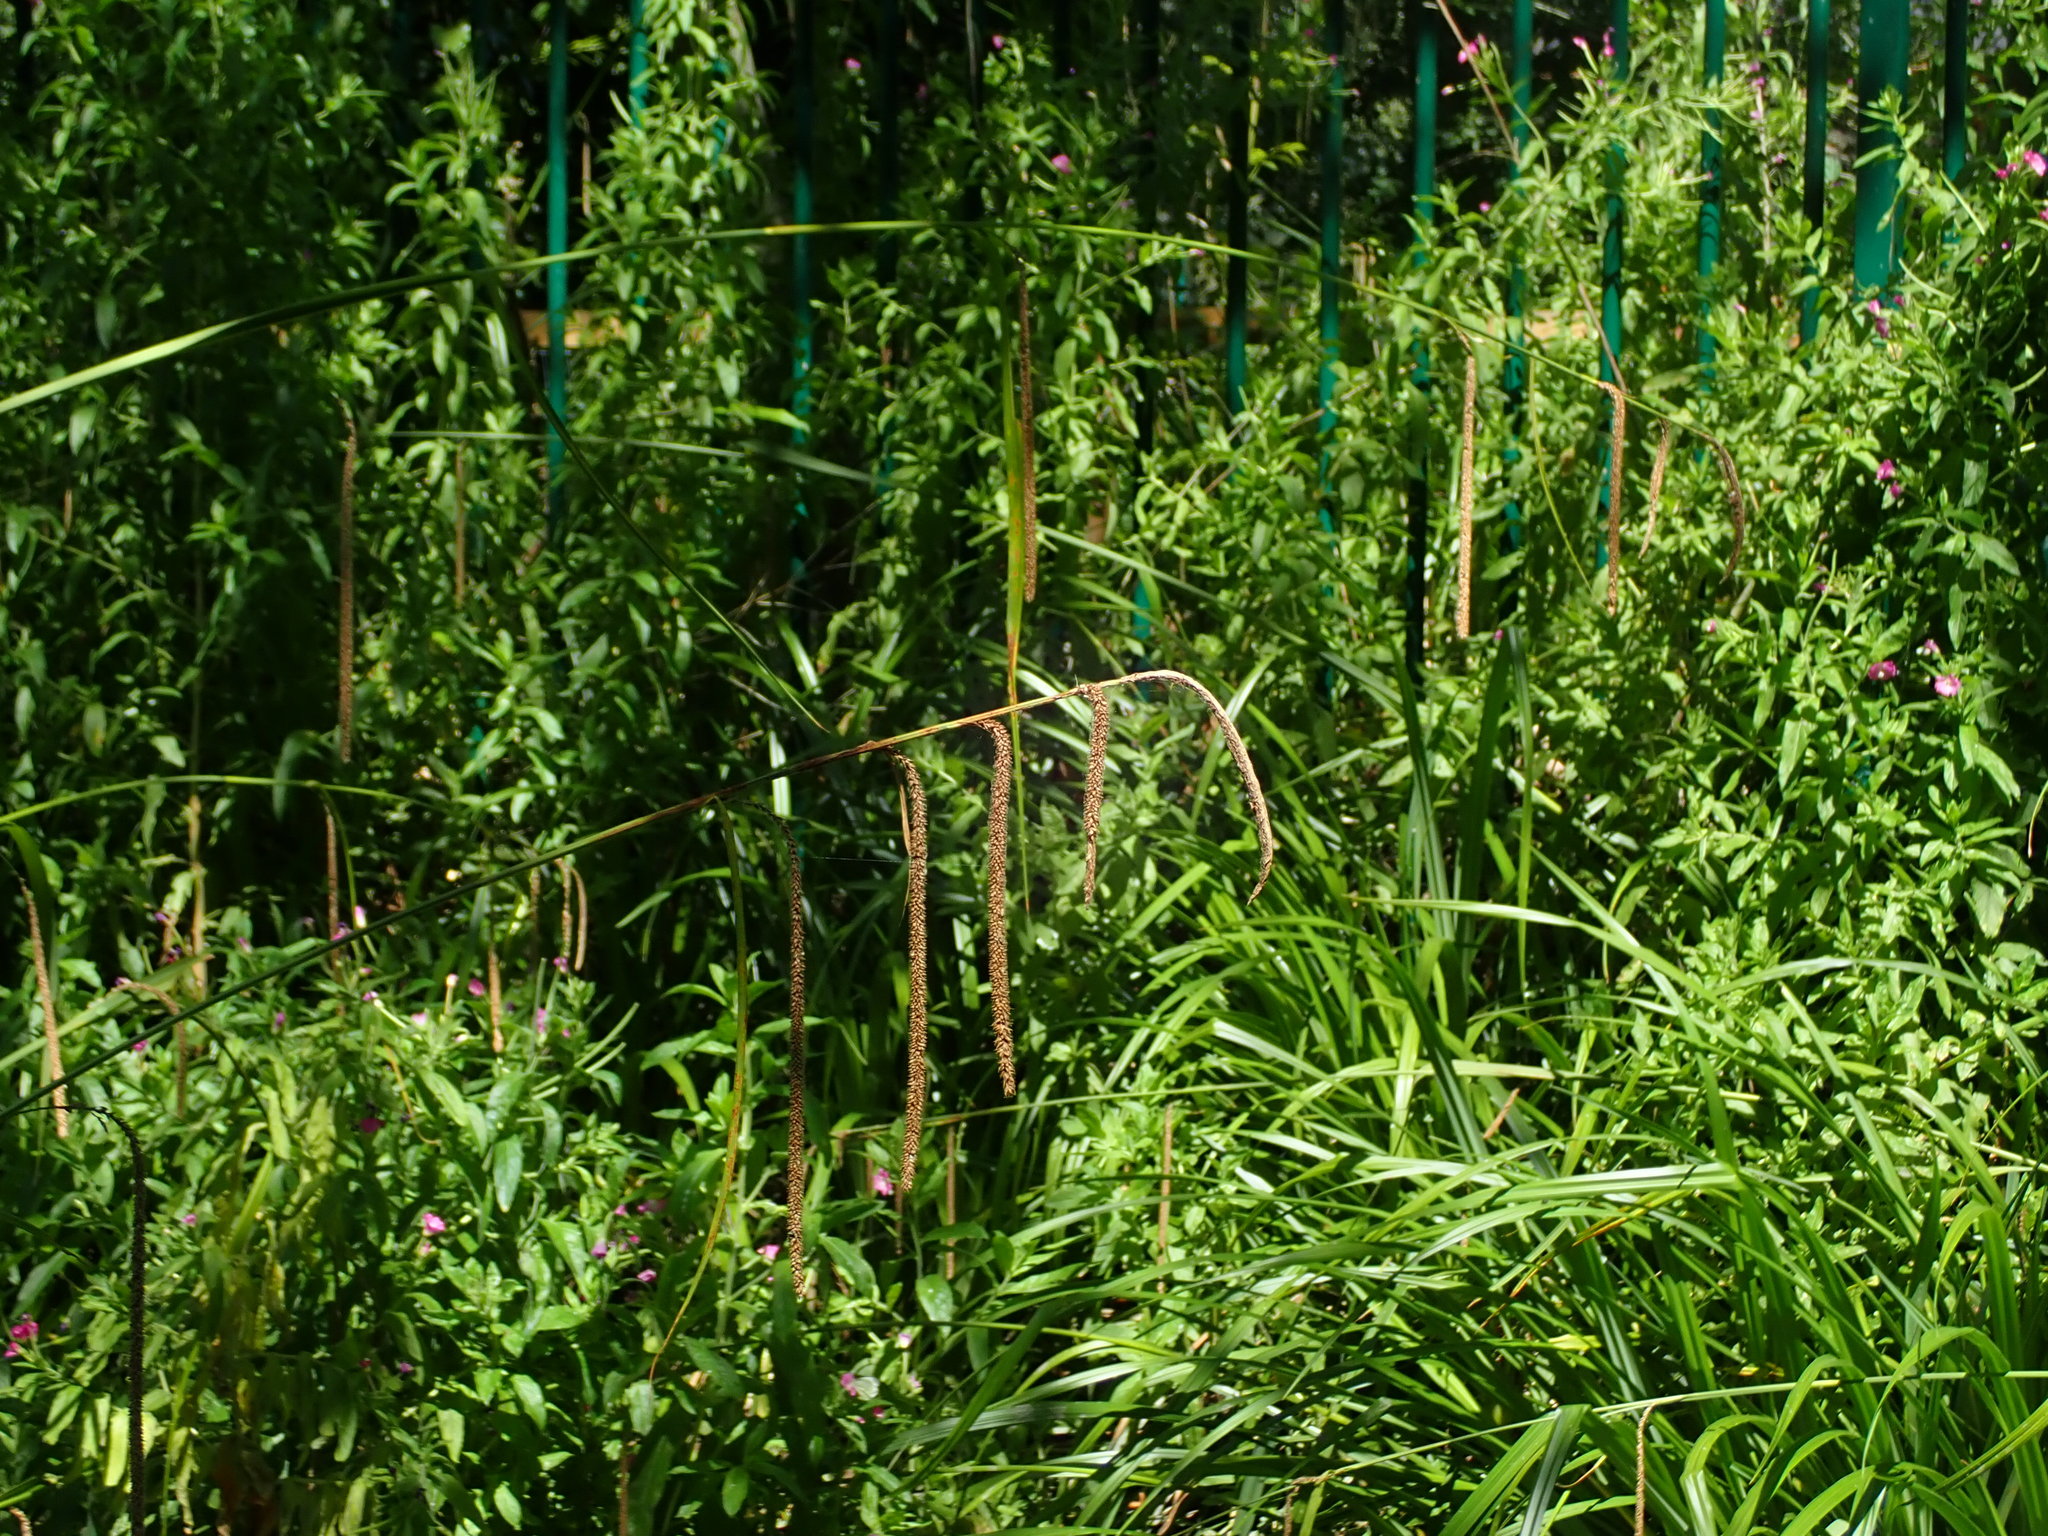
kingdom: Plantae
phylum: Tracheophyta
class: Liliopsida
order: Poales
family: Cyperaceae
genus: Carex
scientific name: Carex pendula
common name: Pendulous sedge
